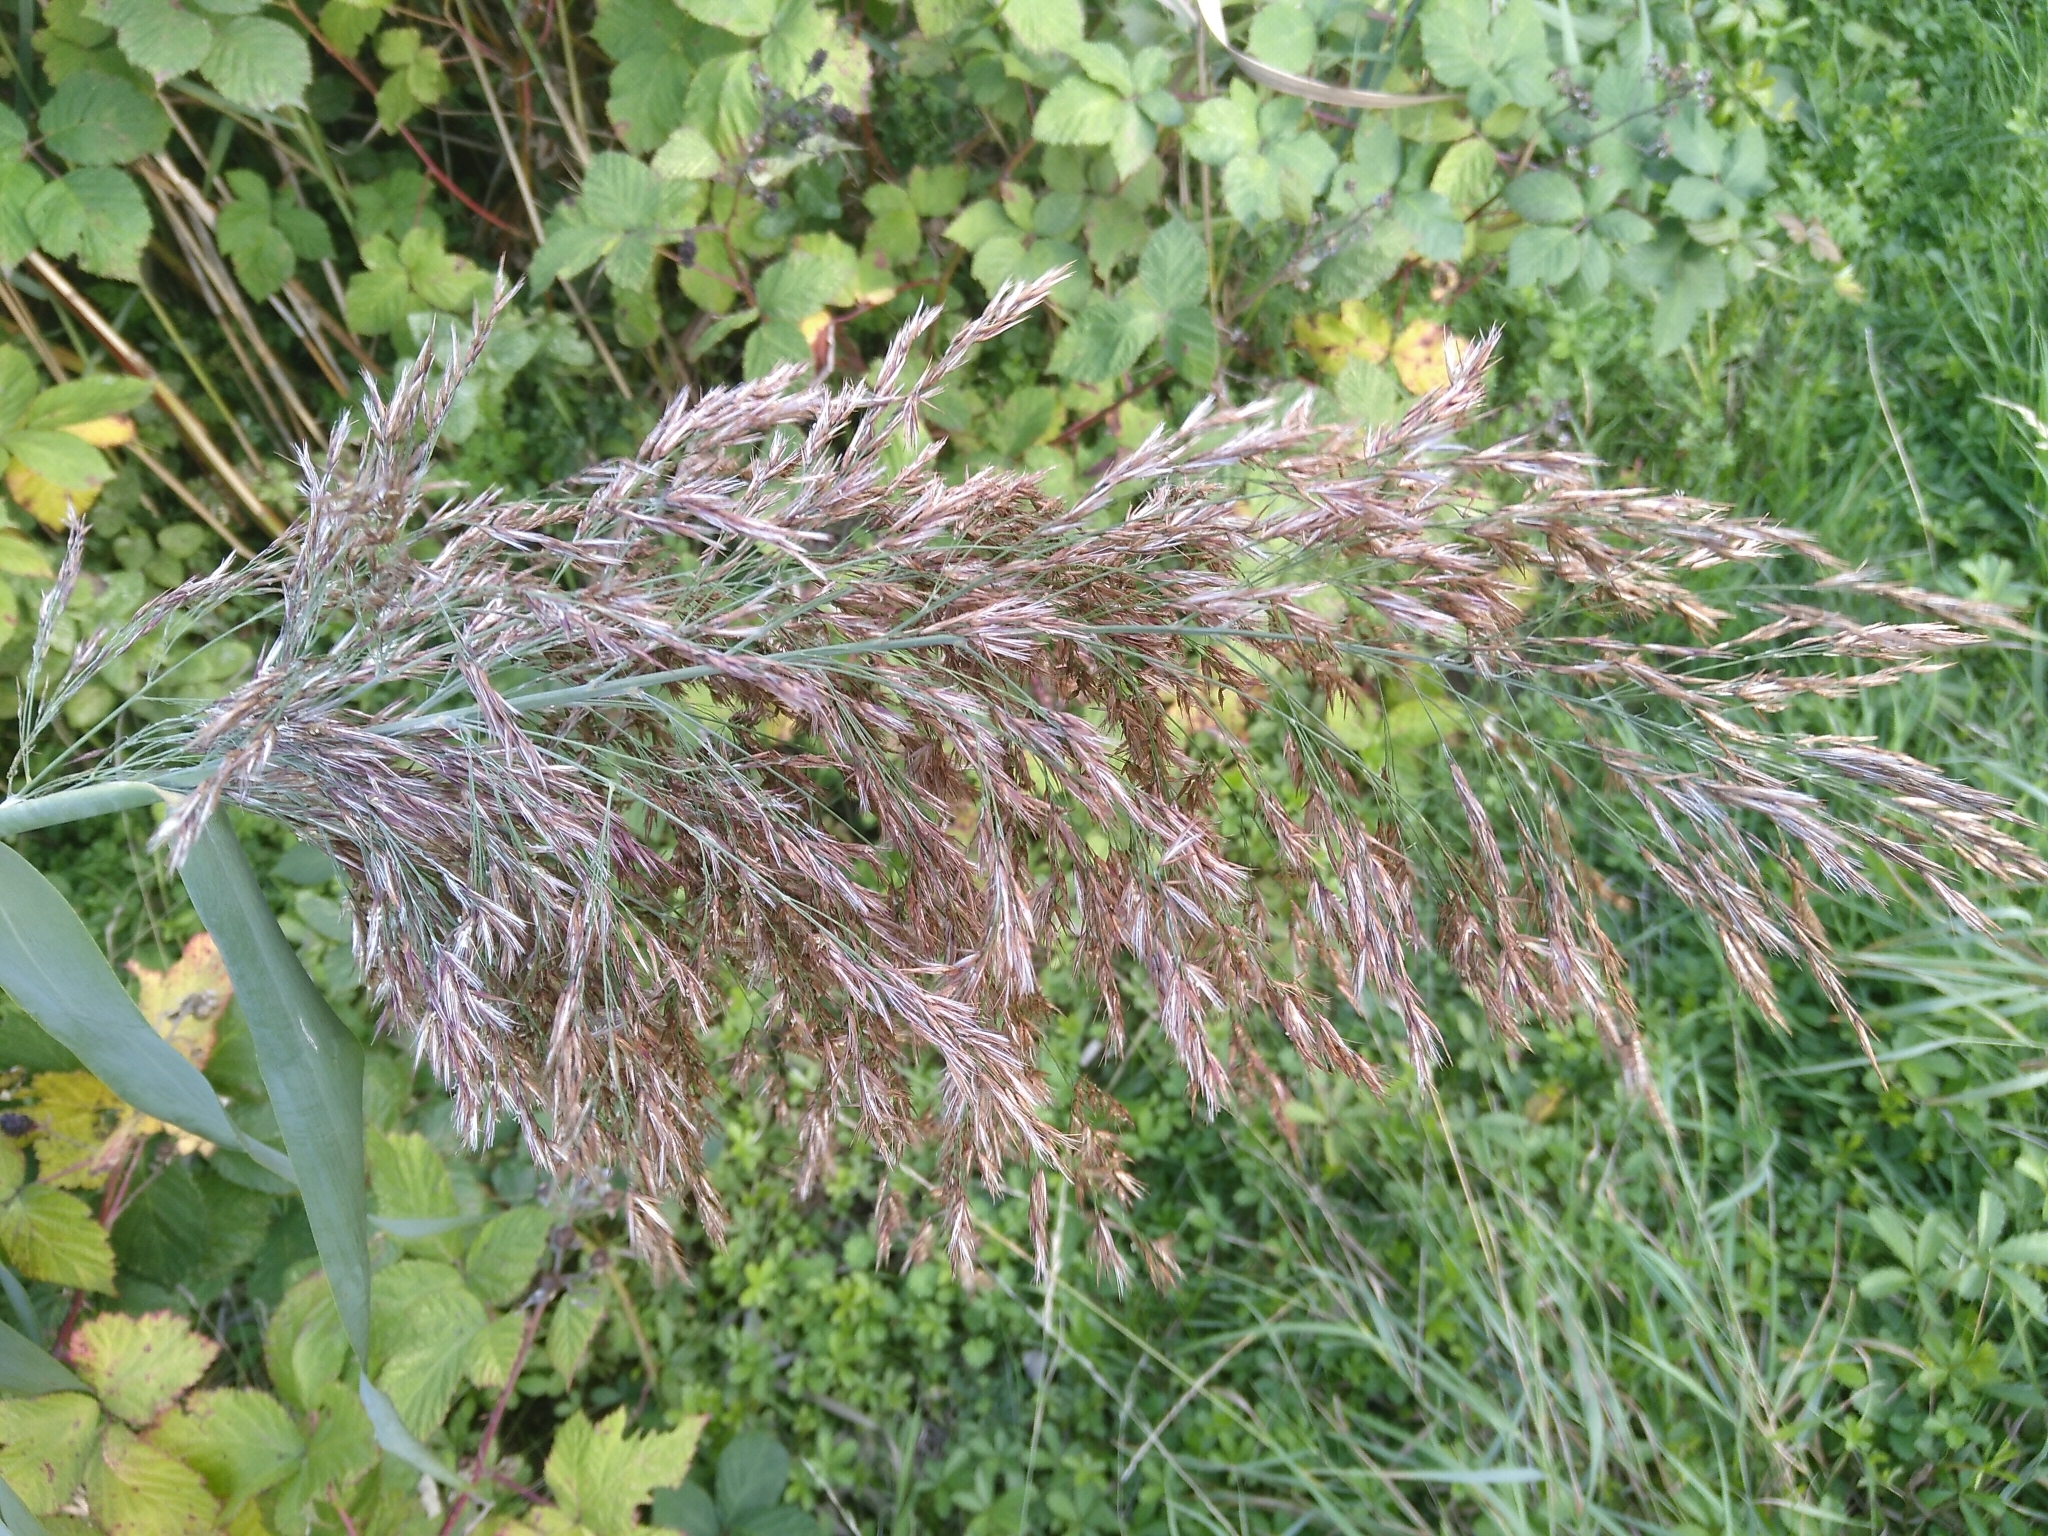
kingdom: Plantae
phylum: Tracheophyta
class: Liliopsida
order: Poales
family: Poaceae
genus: Phragmites
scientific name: Phragmites australis
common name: Common reed
